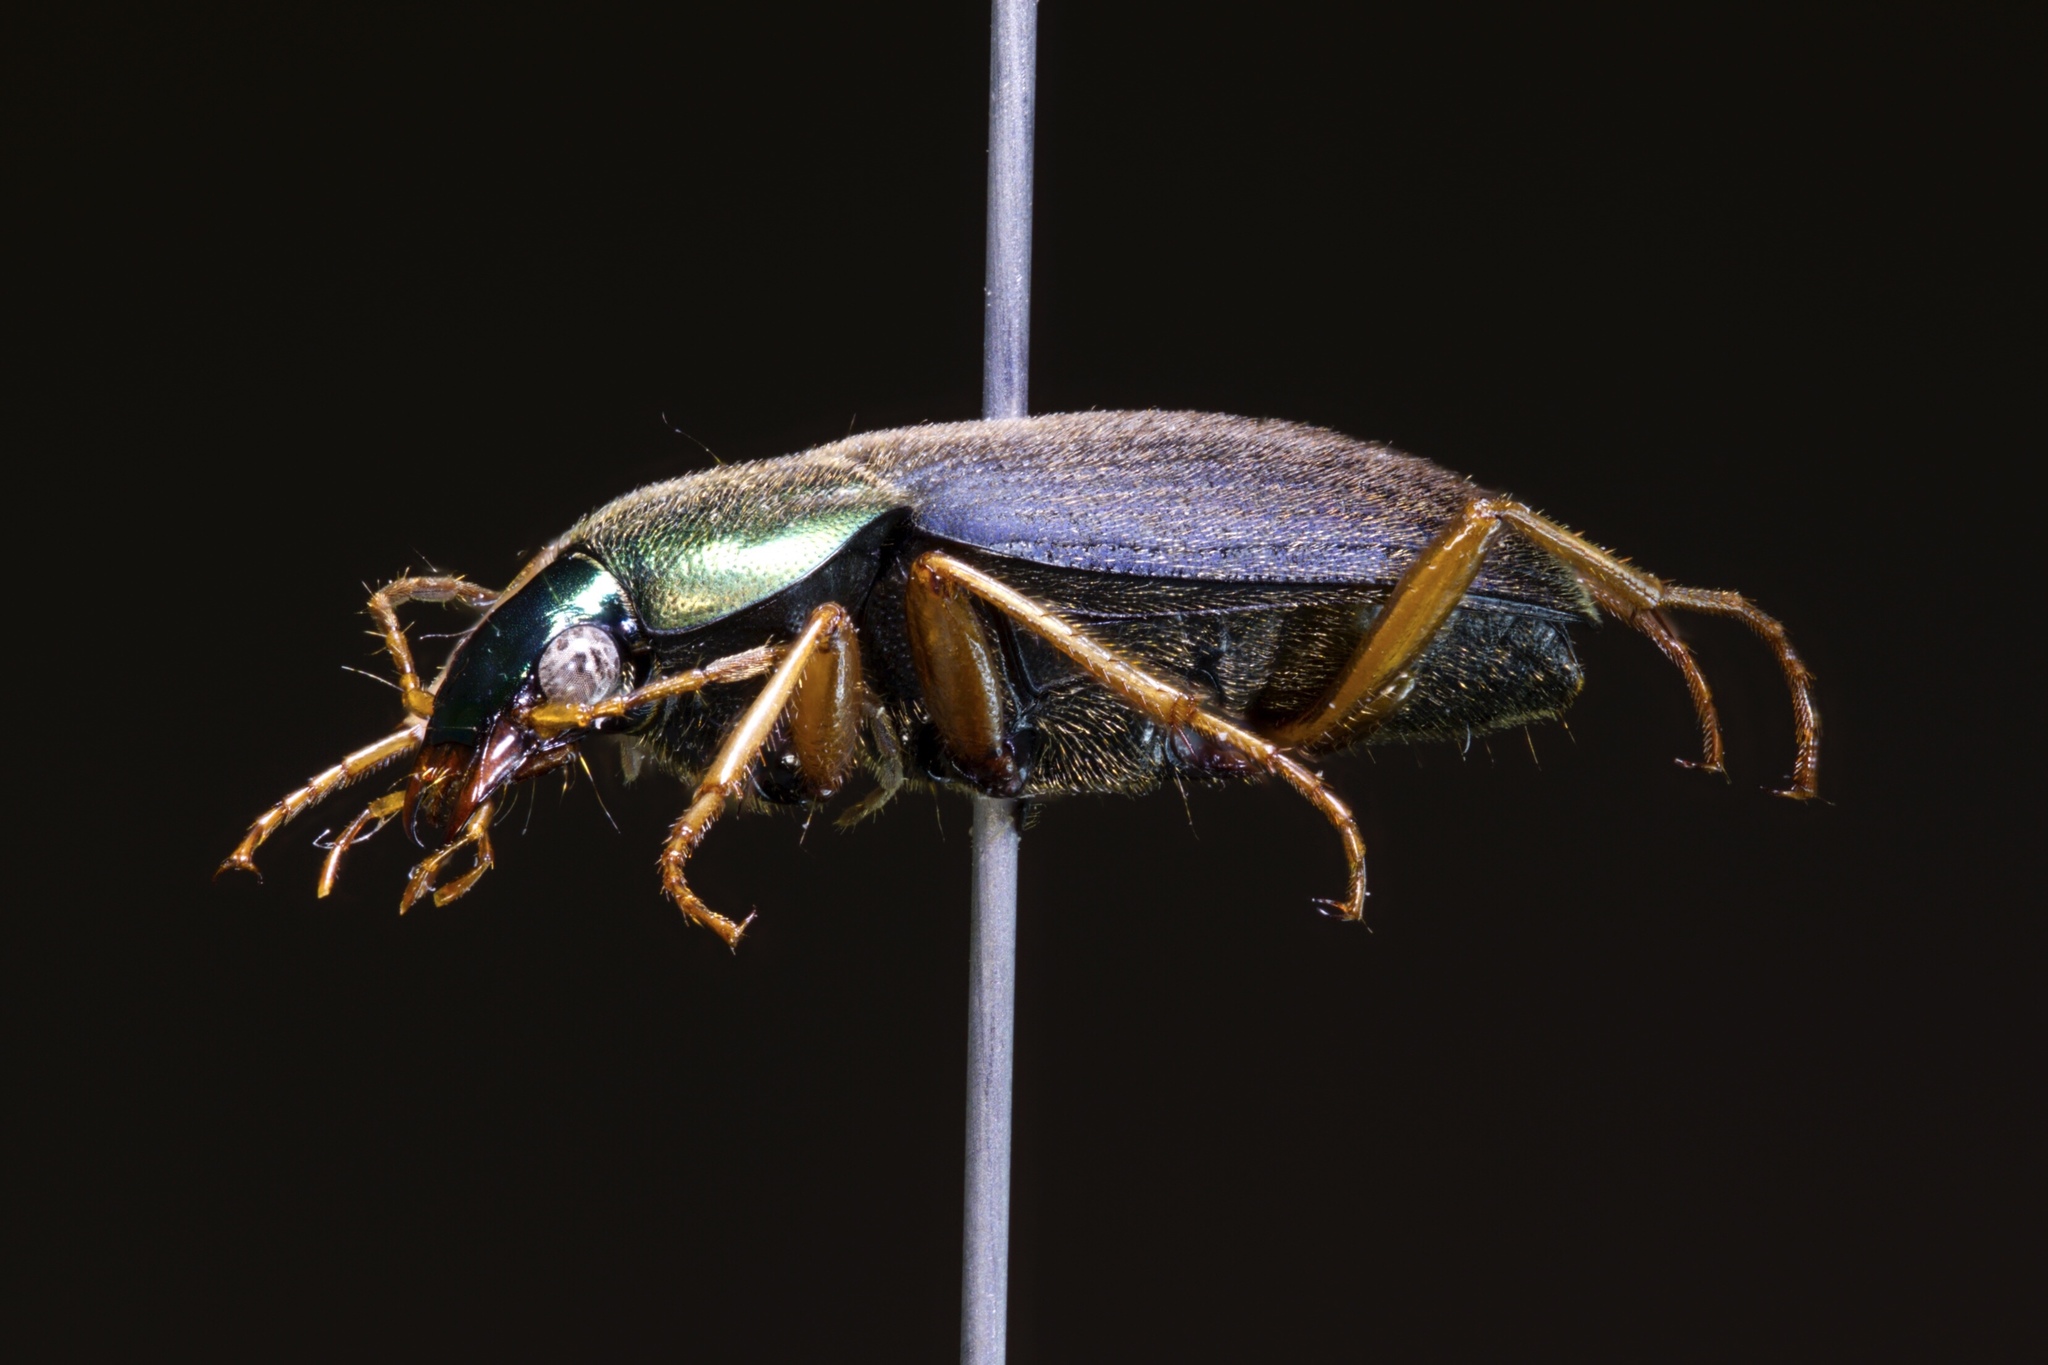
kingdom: Animalia
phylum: Arthropoda
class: Insecta
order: Coleoptera
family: Carabidae
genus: Chlaenius
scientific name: Chlaenius tricolor
